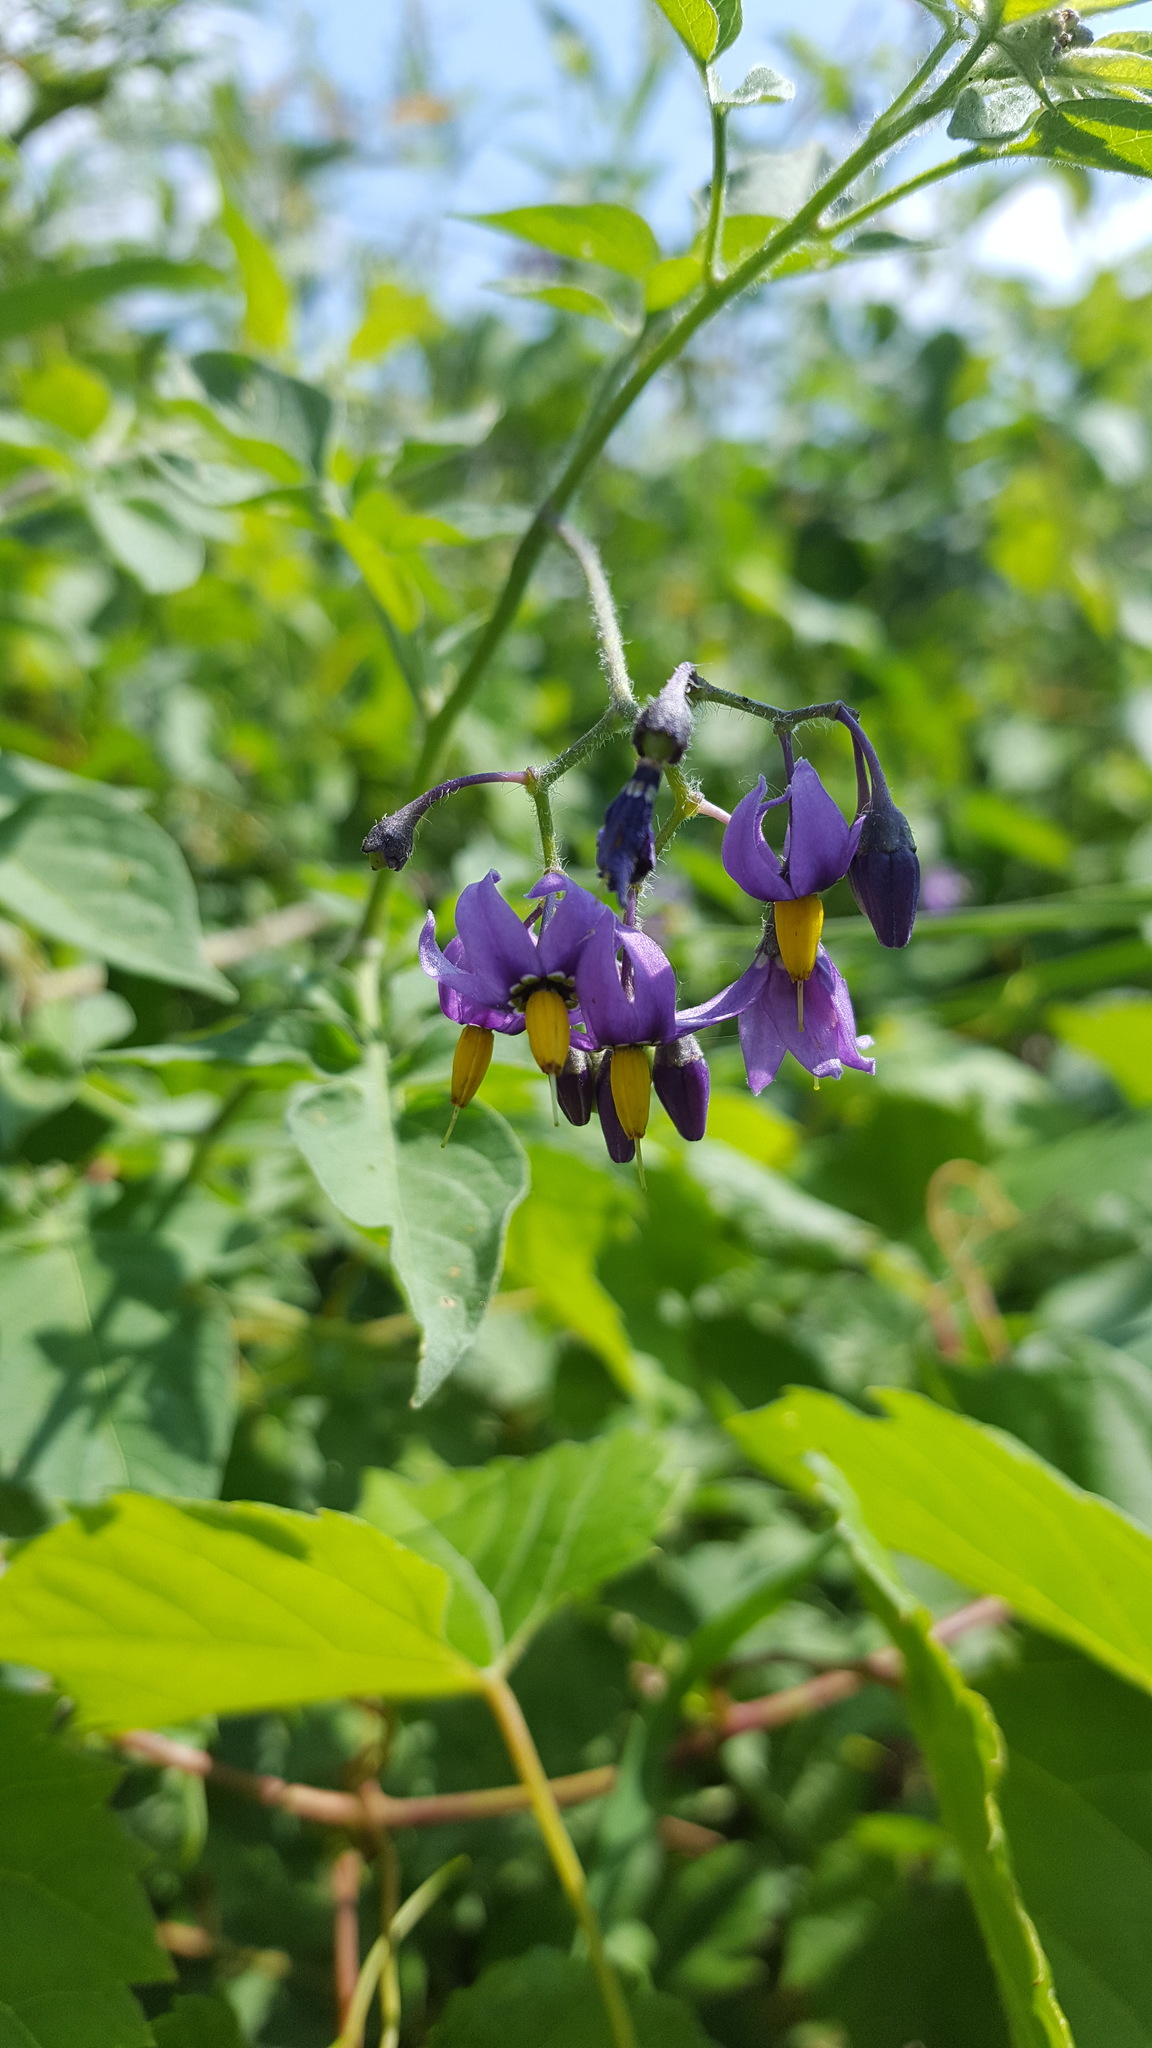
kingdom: Plantae
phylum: Tracheophyta
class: Magnoliopsida
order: Solanales
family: Solanaceae
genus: Solanum
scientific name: Solanum dulcamara
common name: Climbing nightshade
